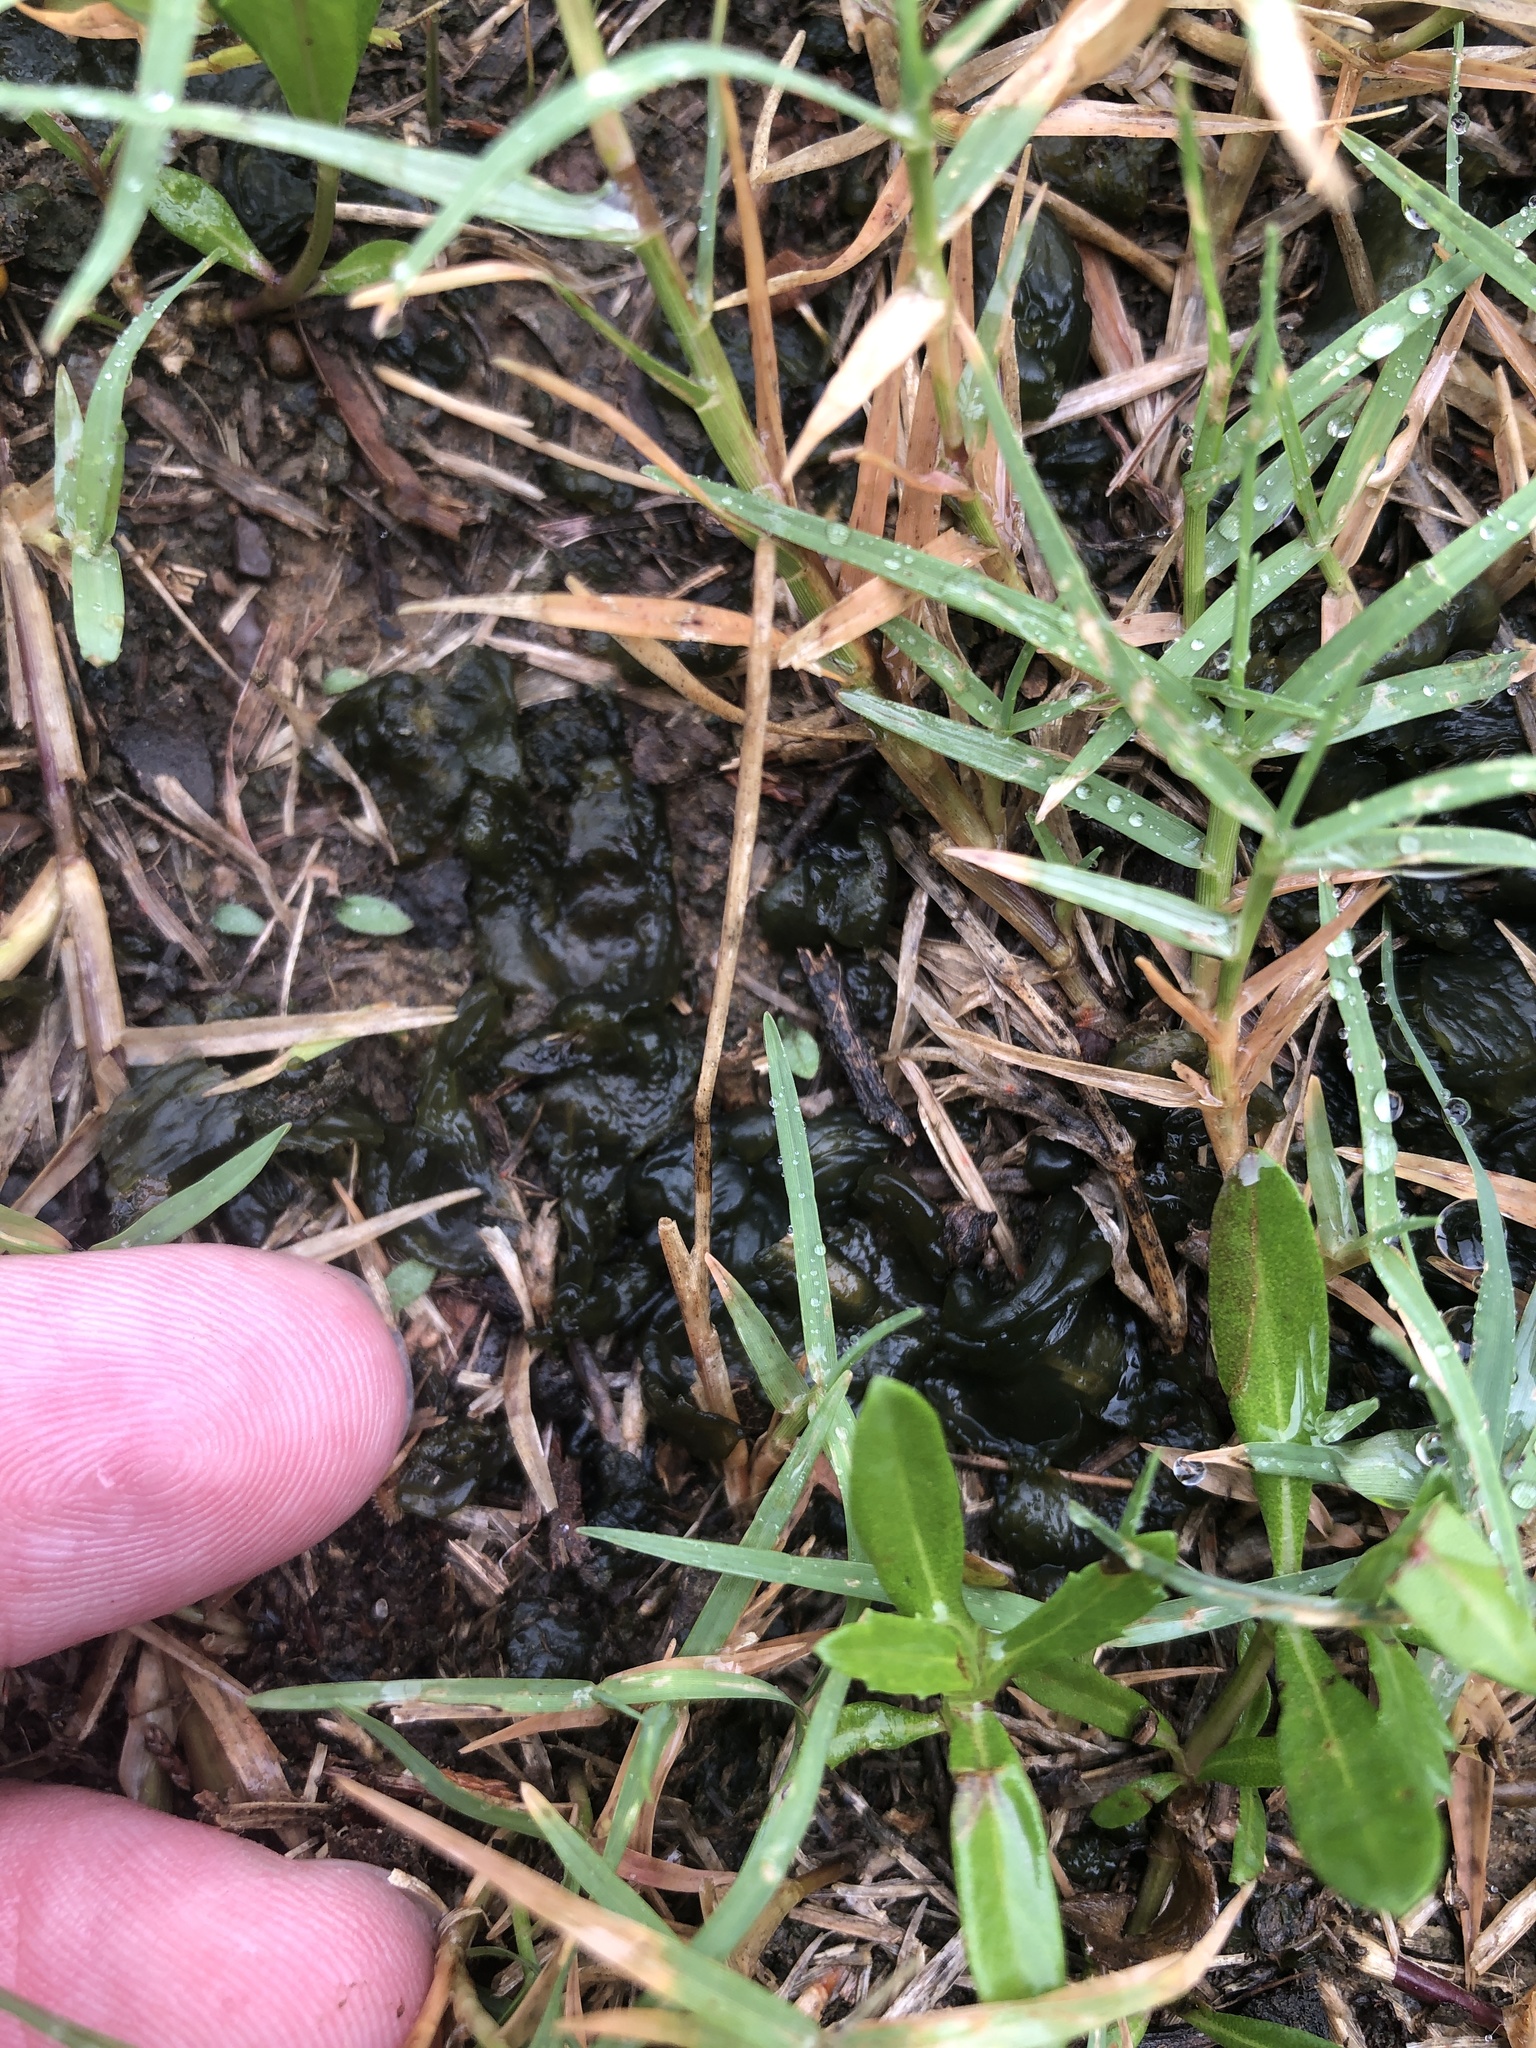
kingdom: Bacteria
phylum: Cyanobacteria
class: Cyanobacteriia
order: Cyanobacteriales
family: Nostocaceae
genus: Nostoc
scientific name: Nostoc commune
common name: Star jelly
